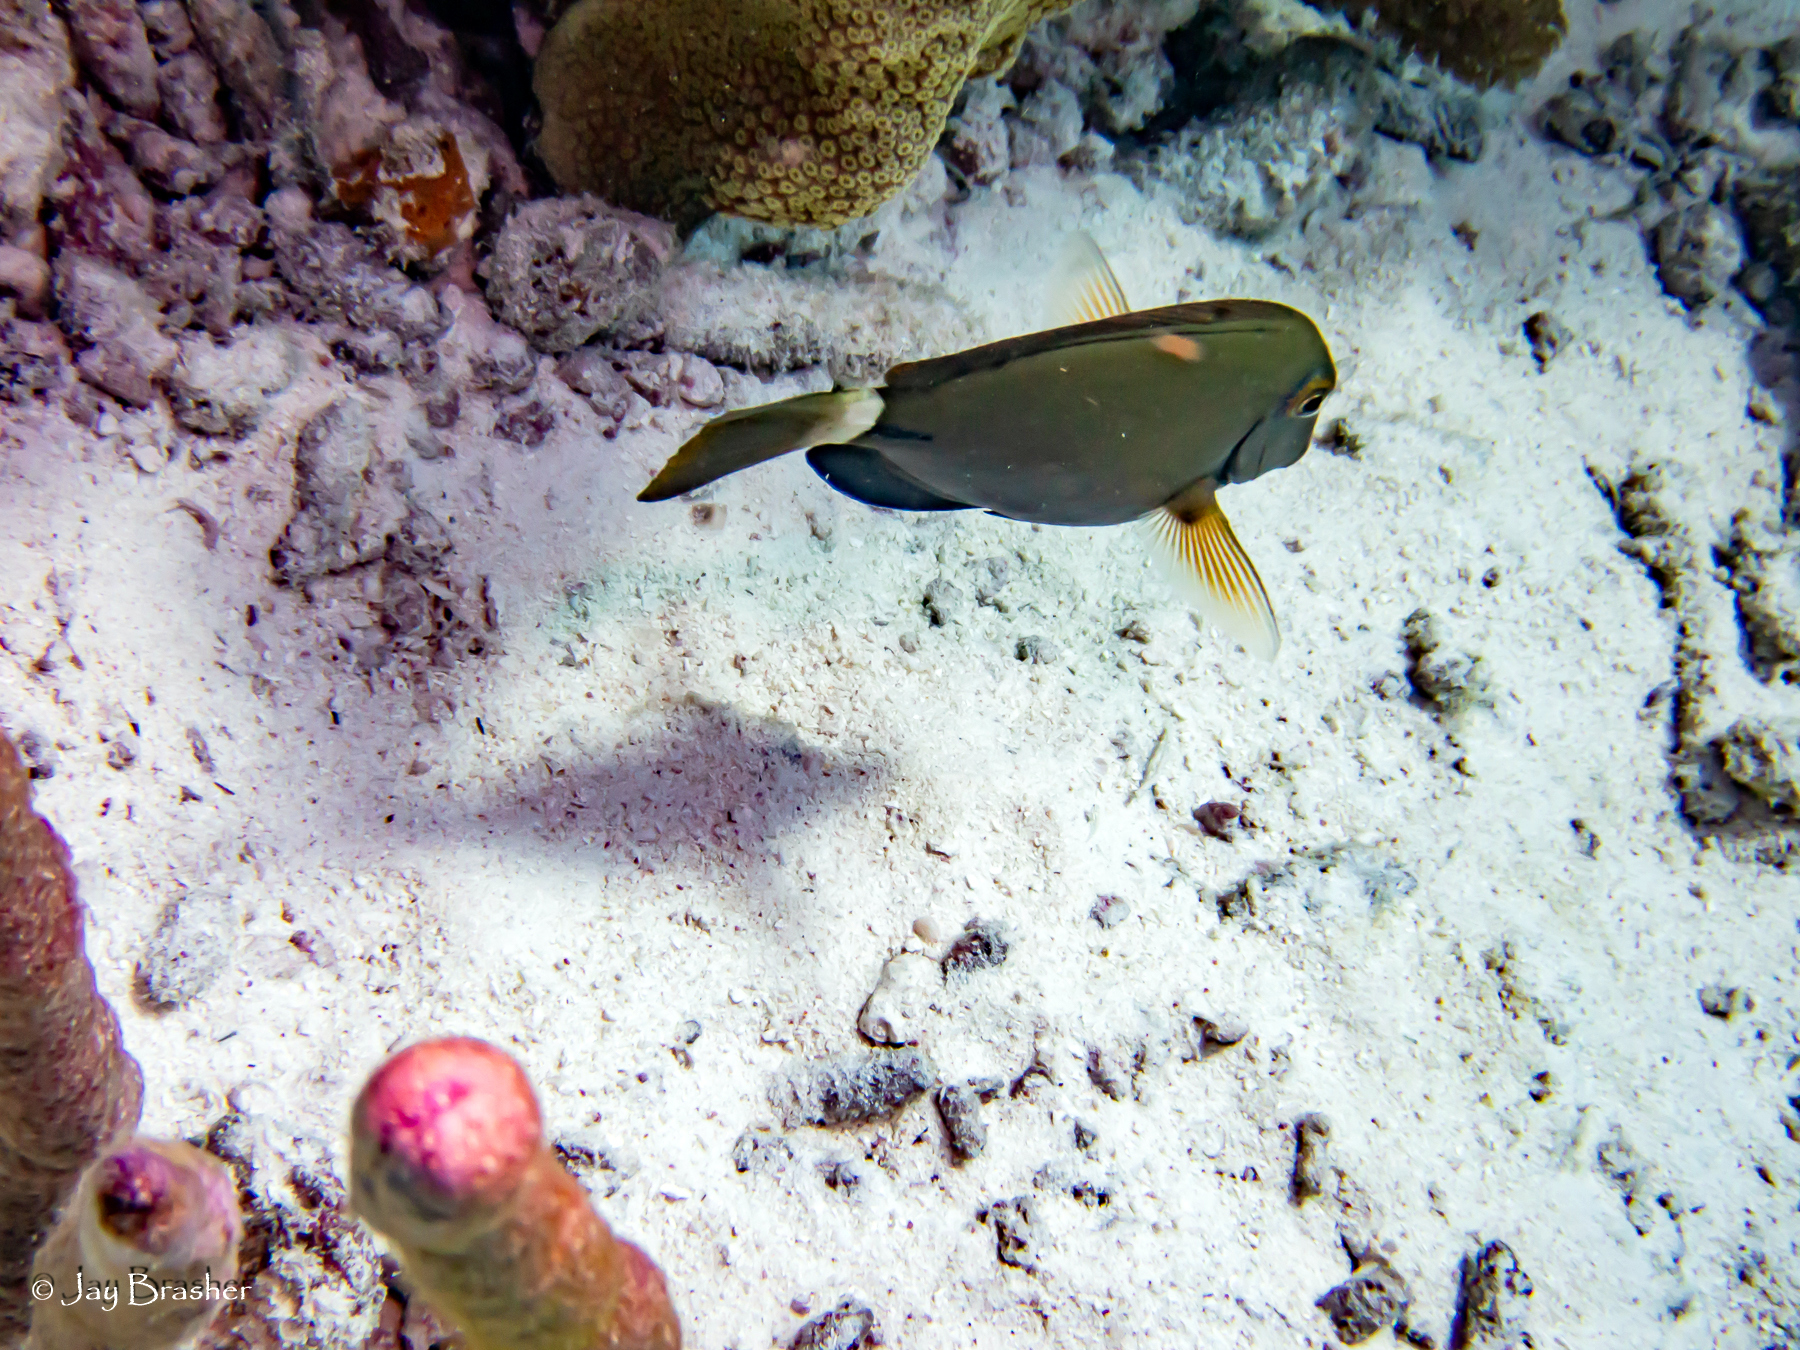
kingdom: Animalia
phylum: Chordata
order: Perciformes
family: Acanthuridae
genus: Acanthurus
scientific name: Acanthurus bahianus
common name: Ocean surgeon
